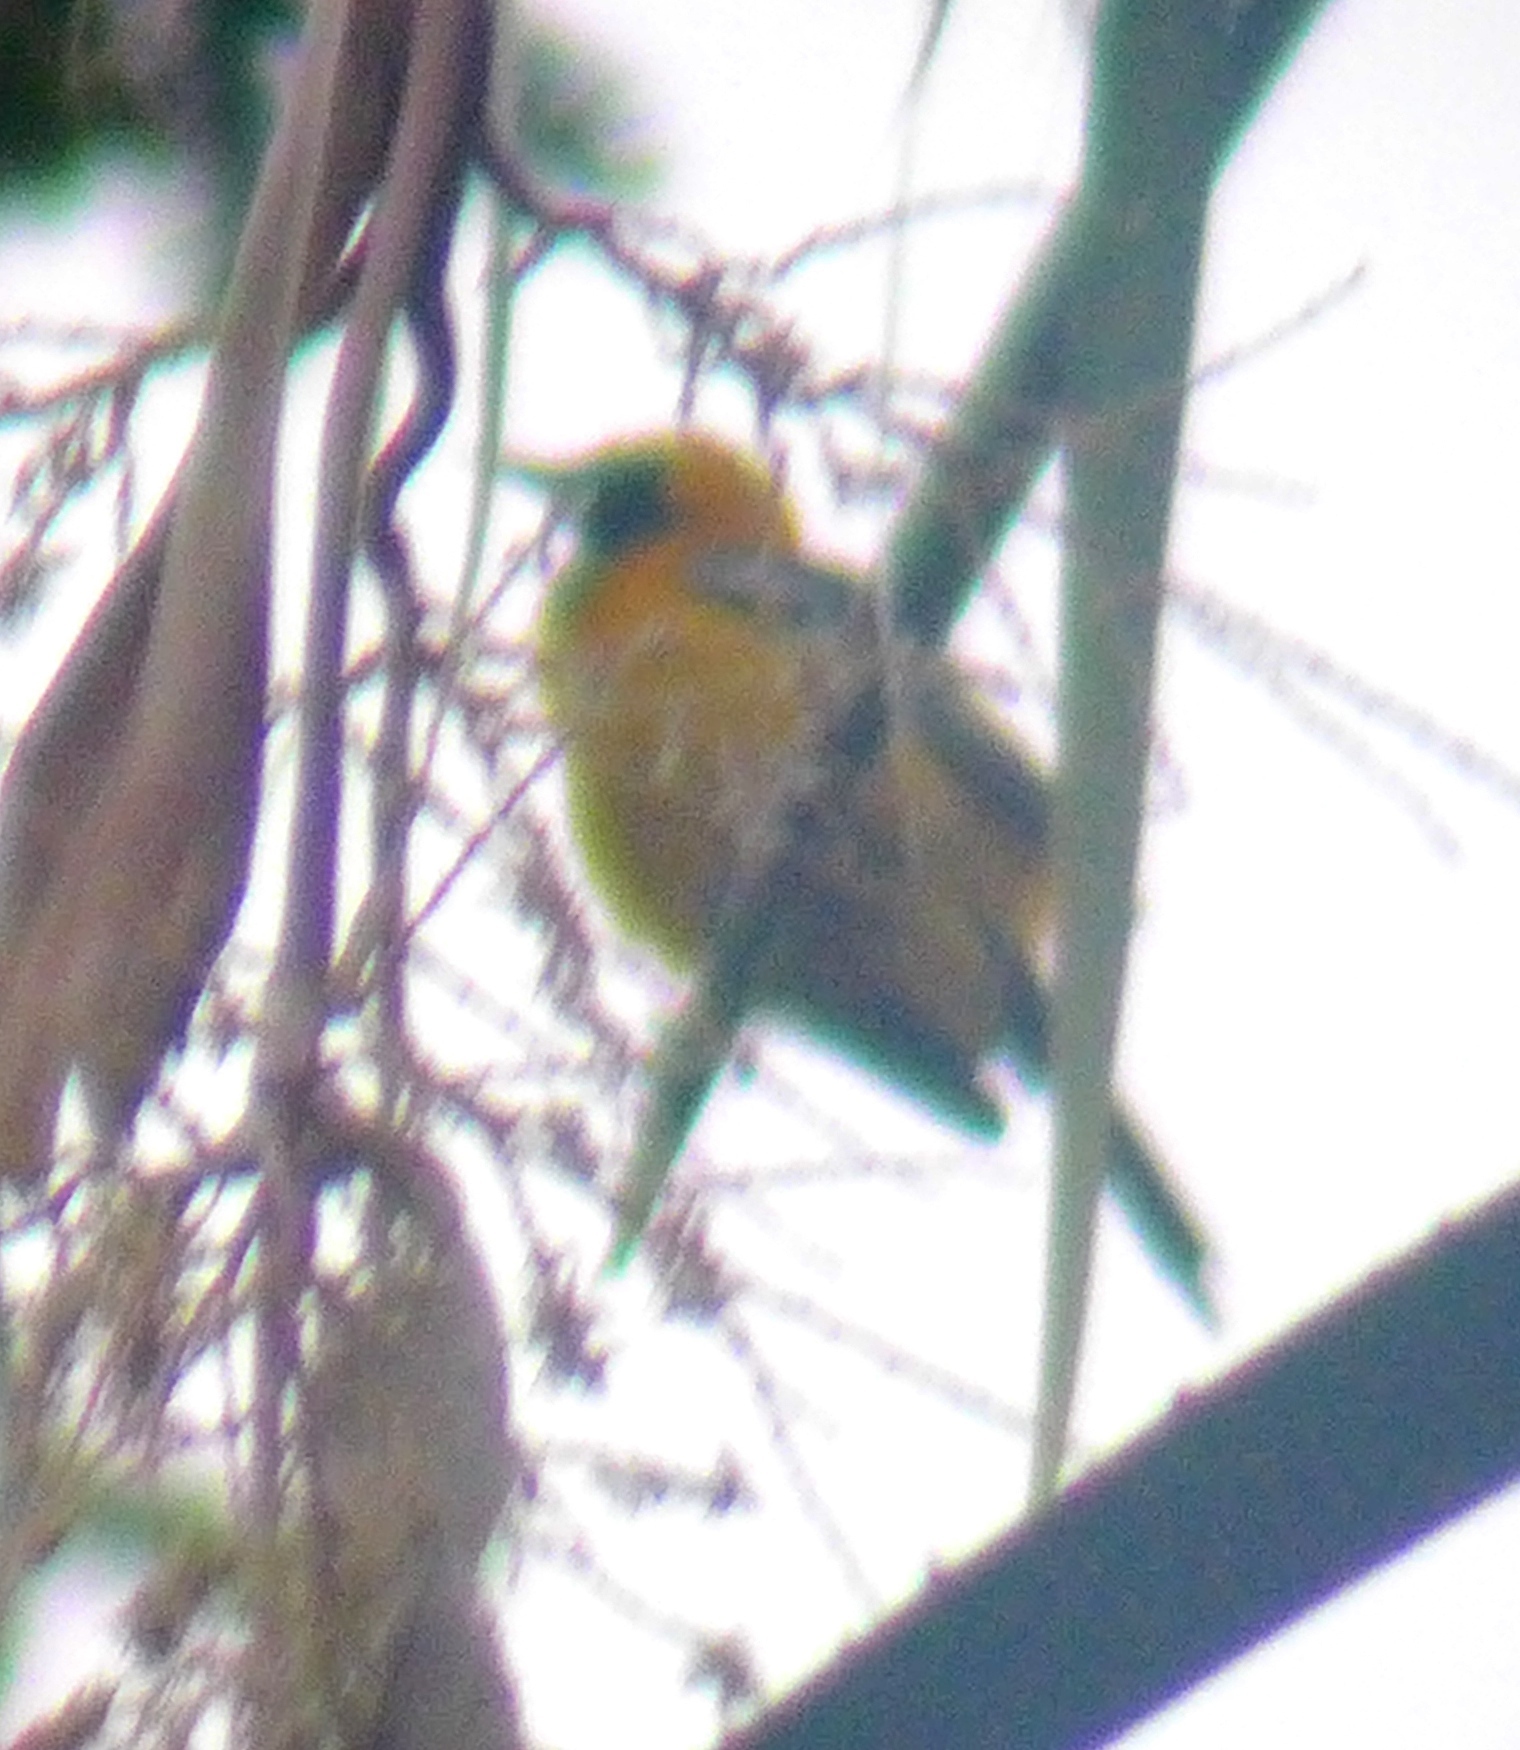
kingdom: Animalia
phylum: Chordata
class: Aves
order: Passeriformes
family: Icteridae
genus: Icterus
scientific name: Icterus cucullatus
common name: Hooded oriole
